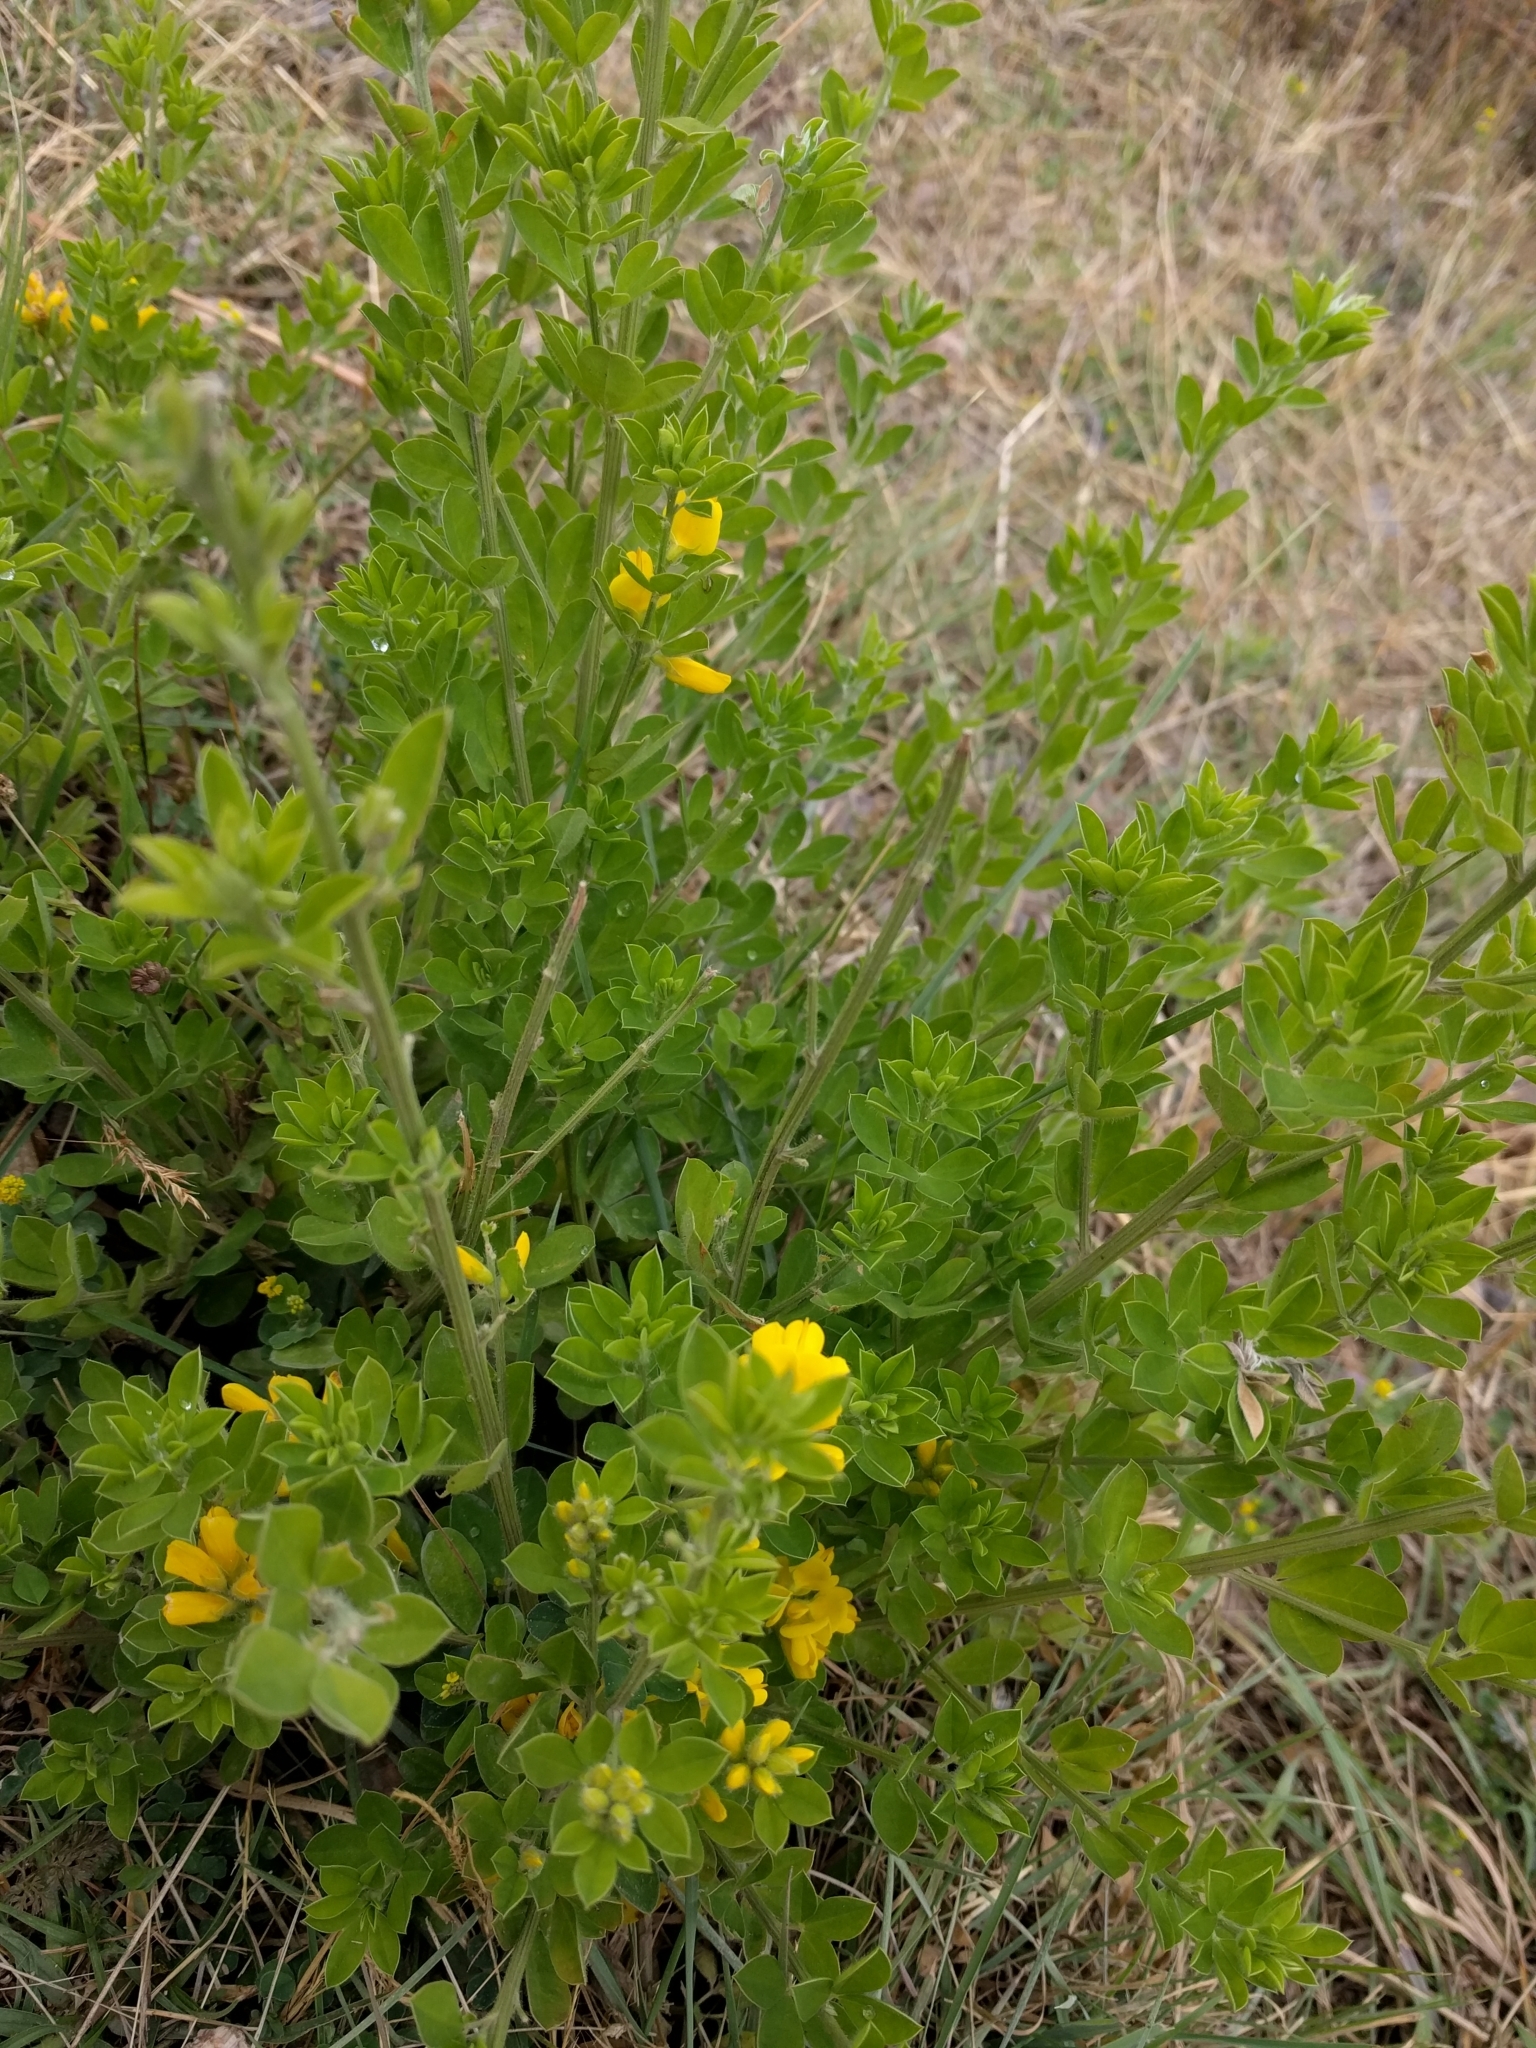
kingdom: Plantae
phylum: Tracheophyta
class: Magnoliopsida
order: Fabales
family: Fabaceae
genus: Genista
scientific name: Genista monspessulana
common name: Montpellier broom
